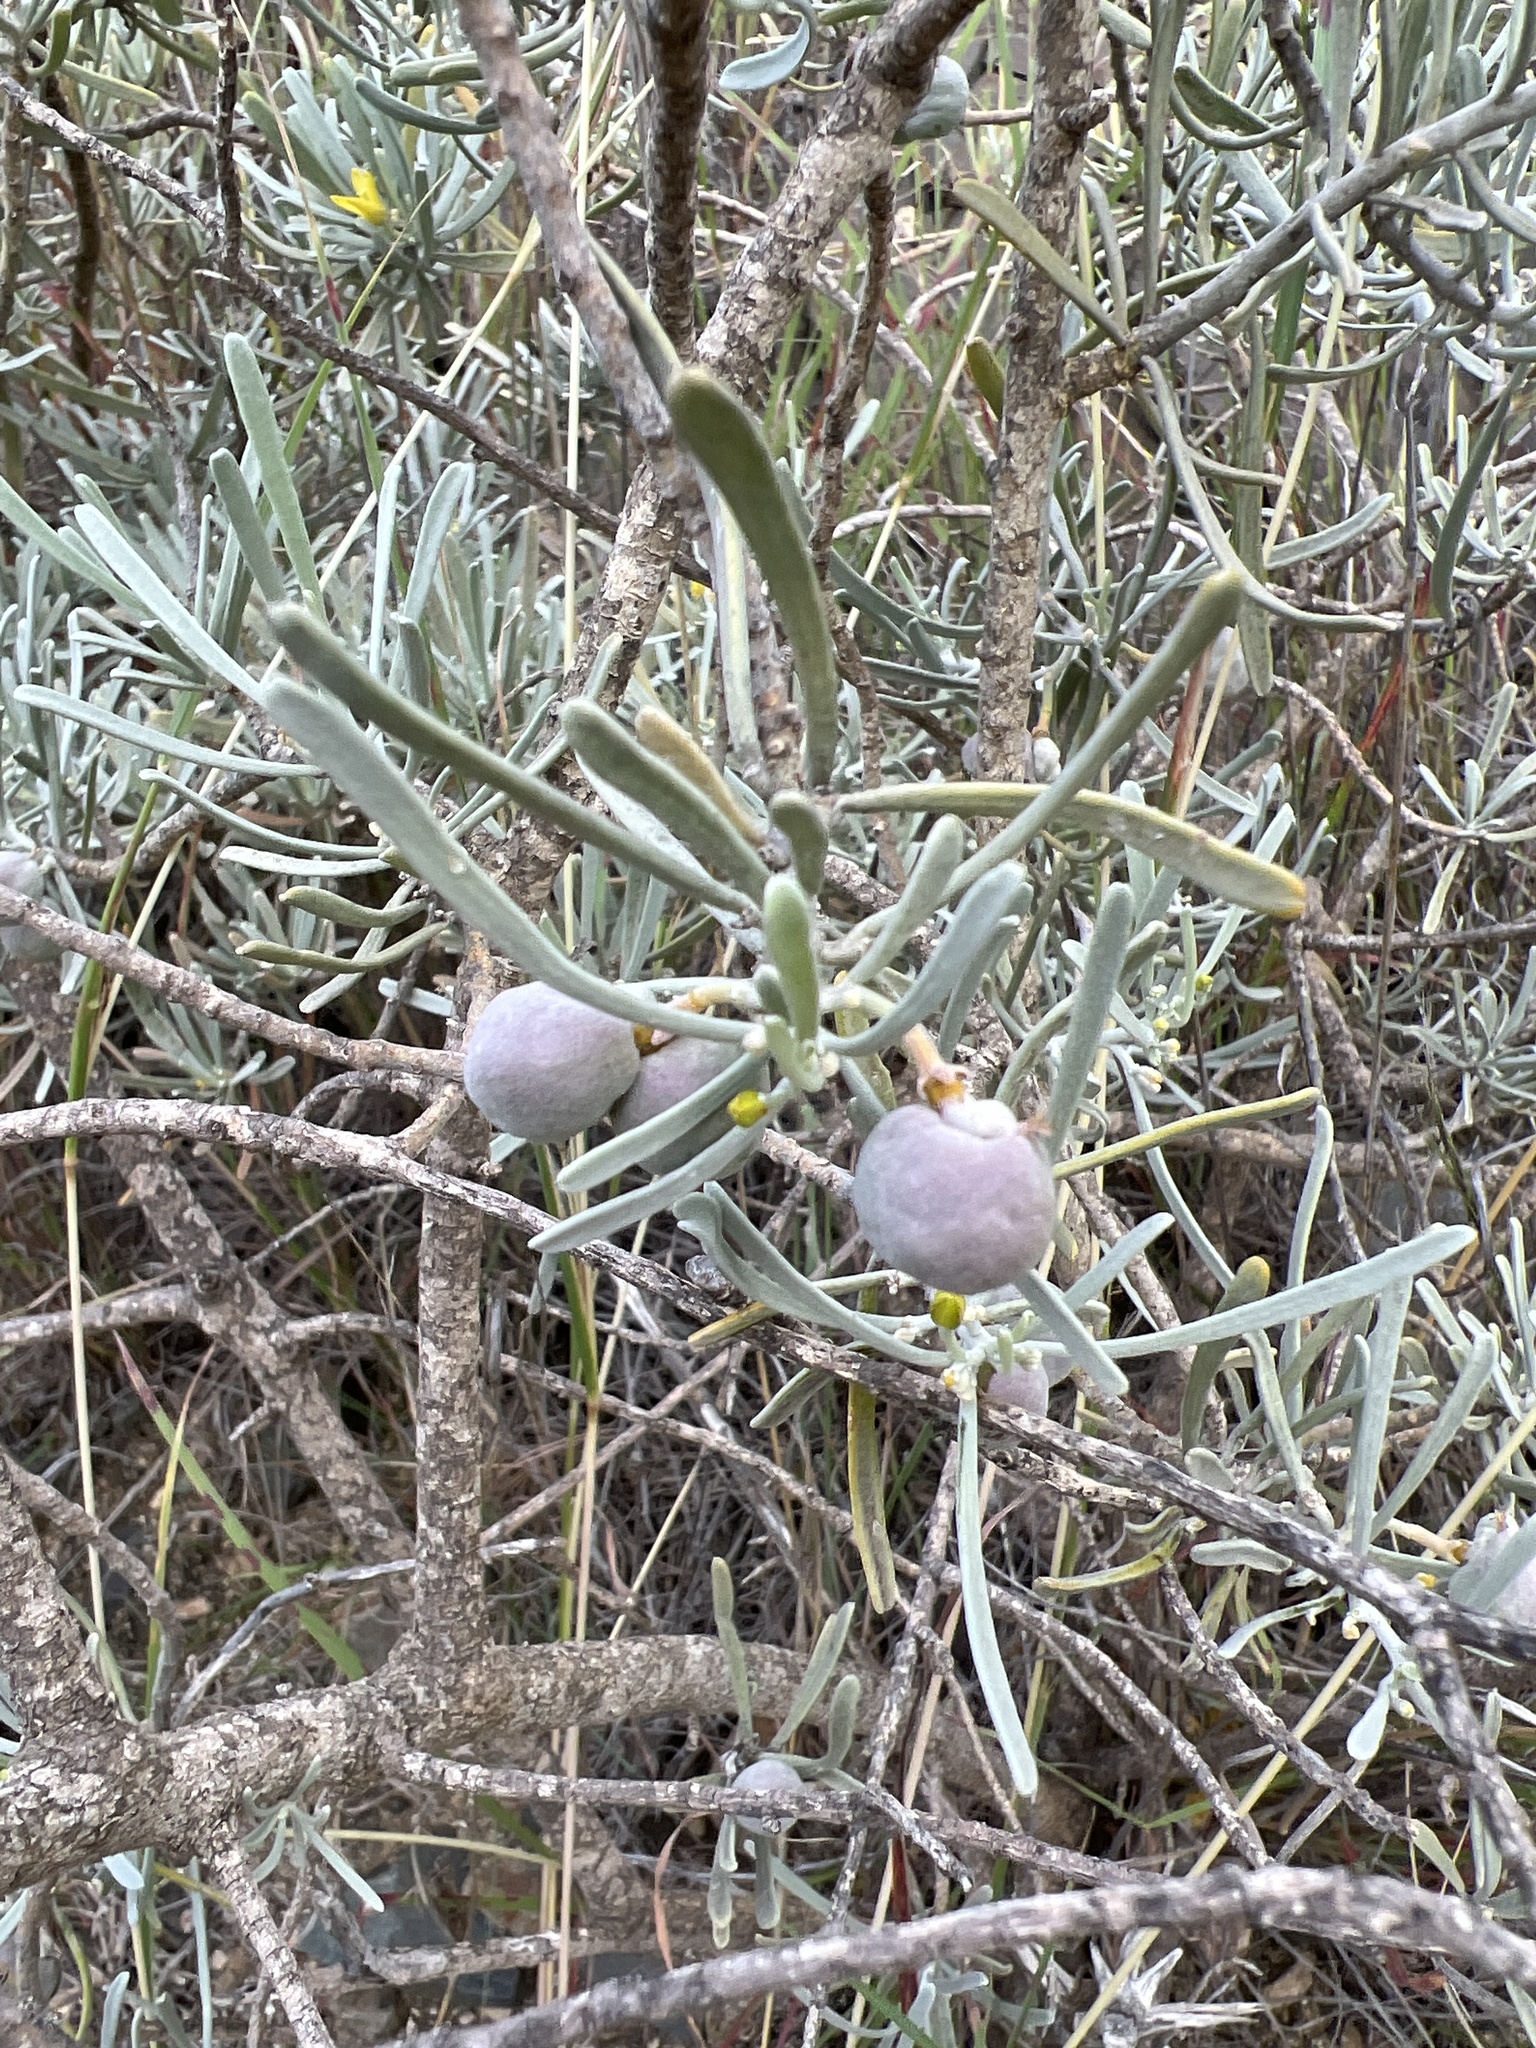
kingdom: Plantae
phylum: Tracheophyta
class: Magnoliopsida
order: Sapindales
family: Rutaceae
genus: Cneorum
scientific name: Cneorum pulverulentum
